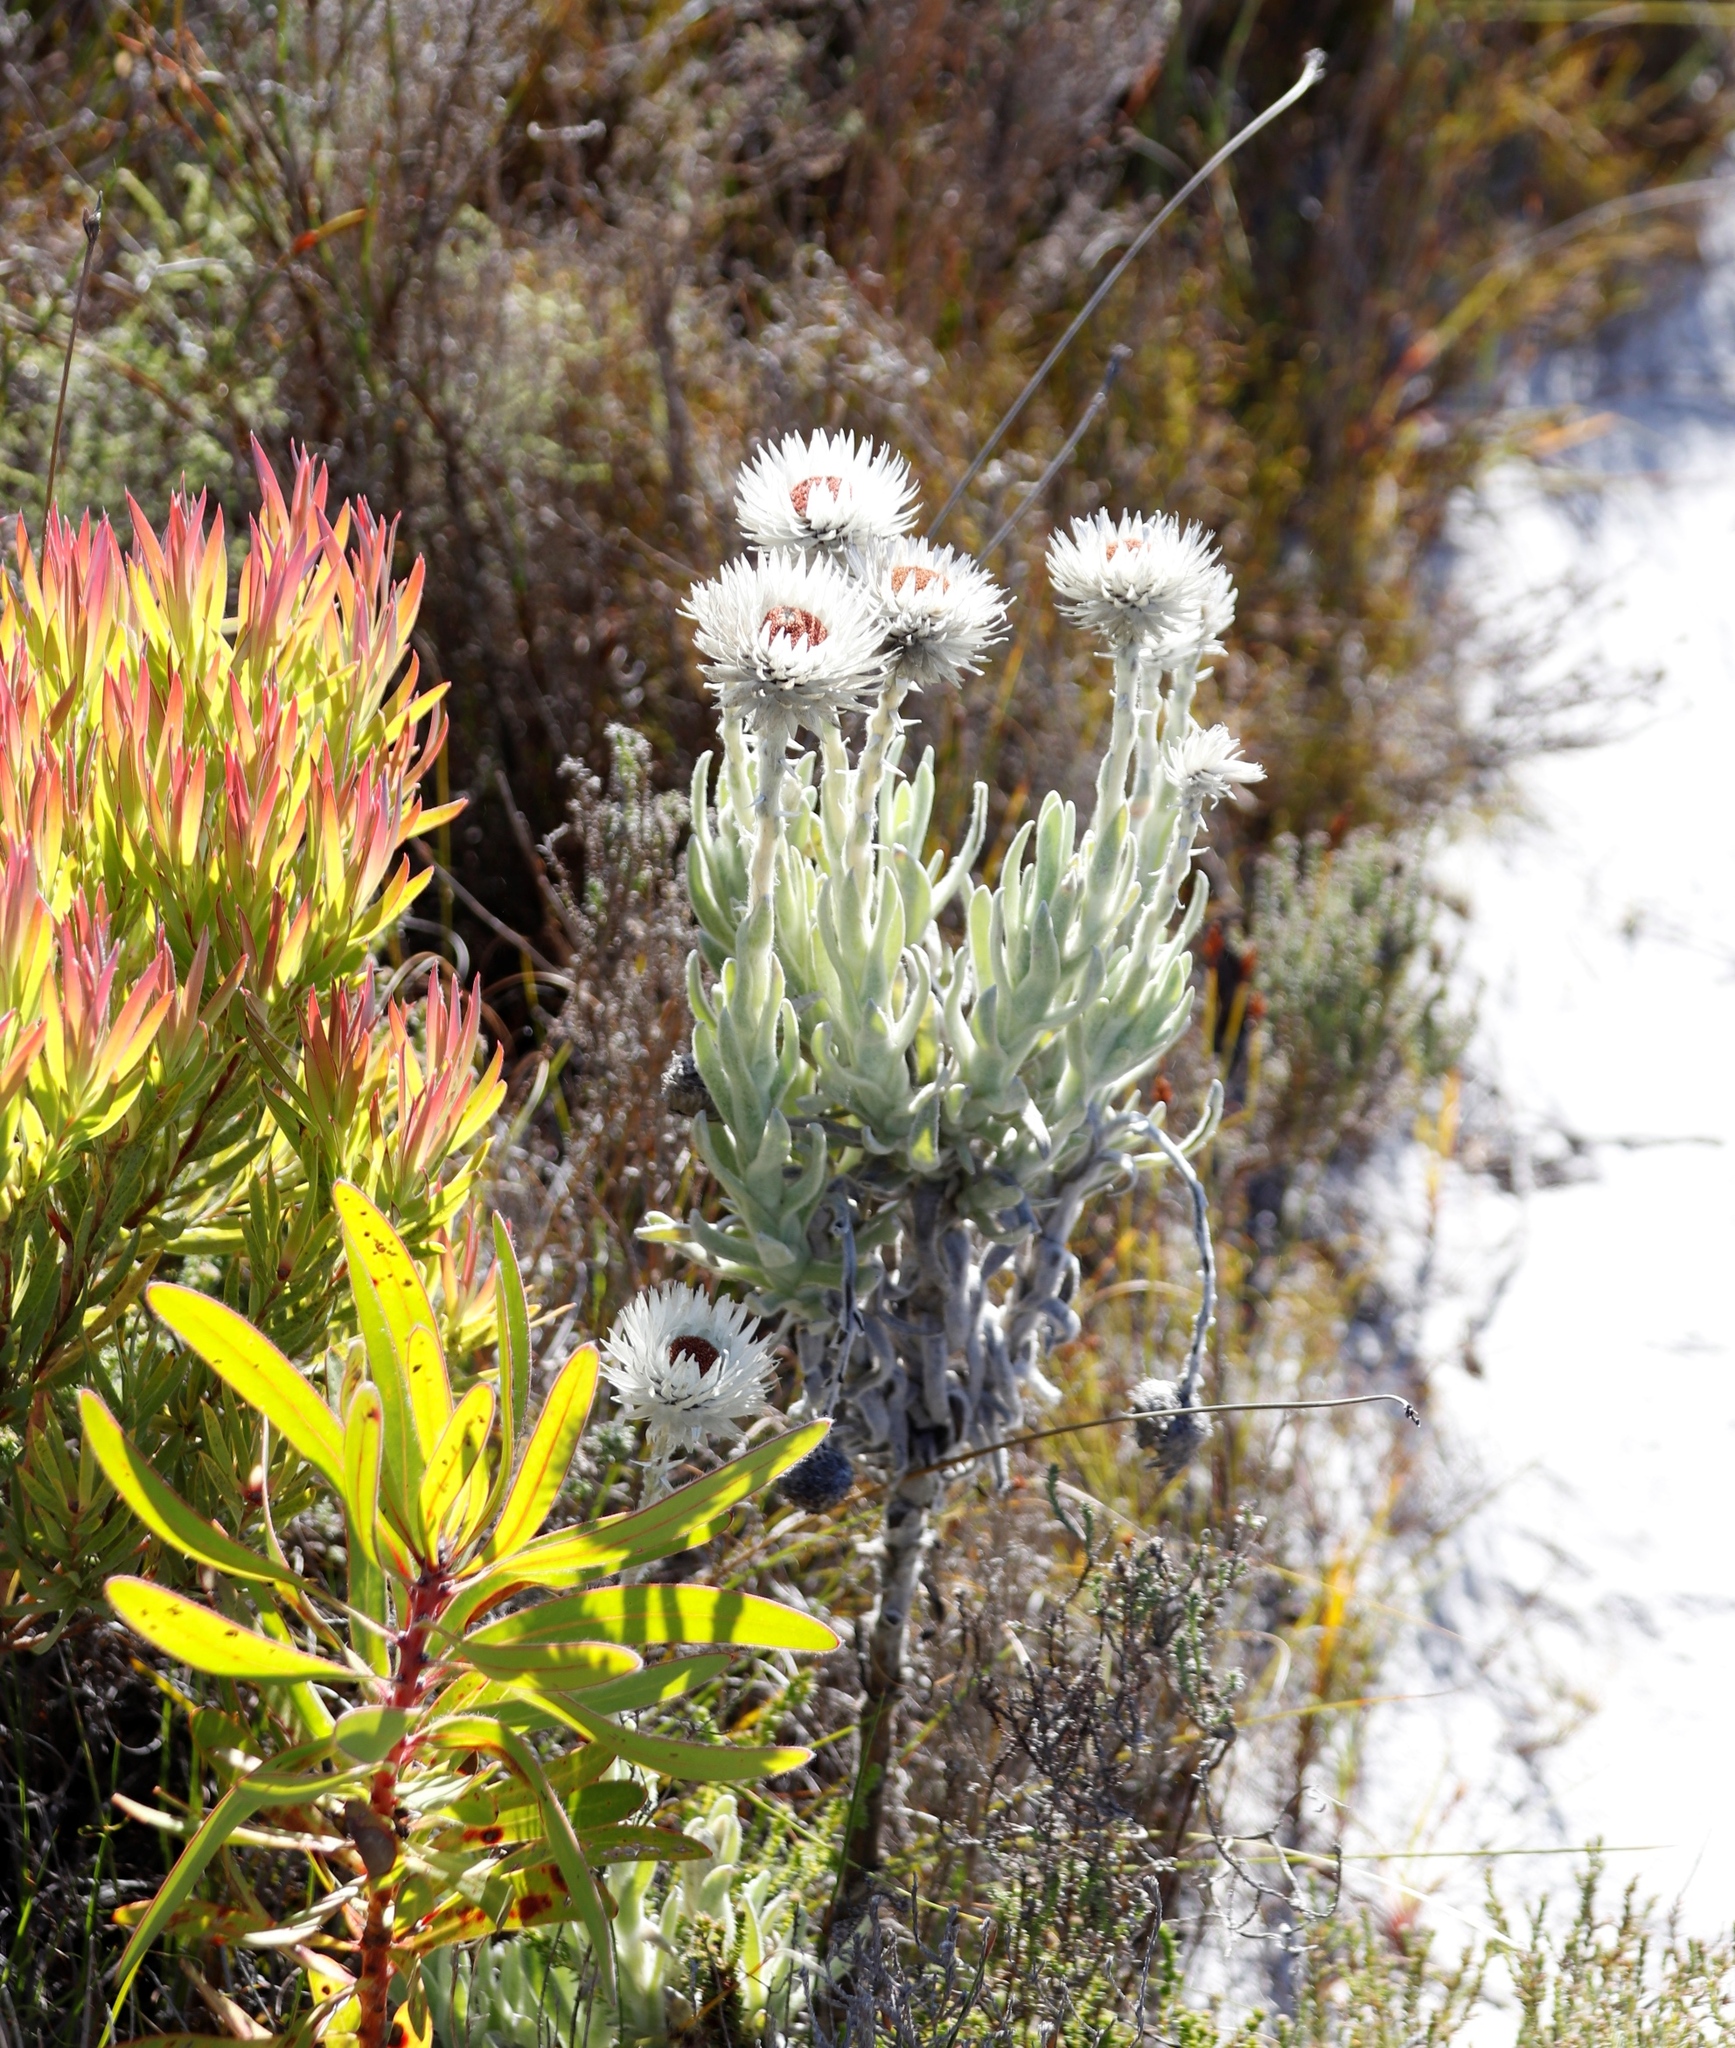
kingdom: Plantae
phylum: Tracheophyta
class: Magnoliopsida
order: Asterales
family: Asteraceae
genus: Syncarpha
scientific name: Syncarpha vestita
